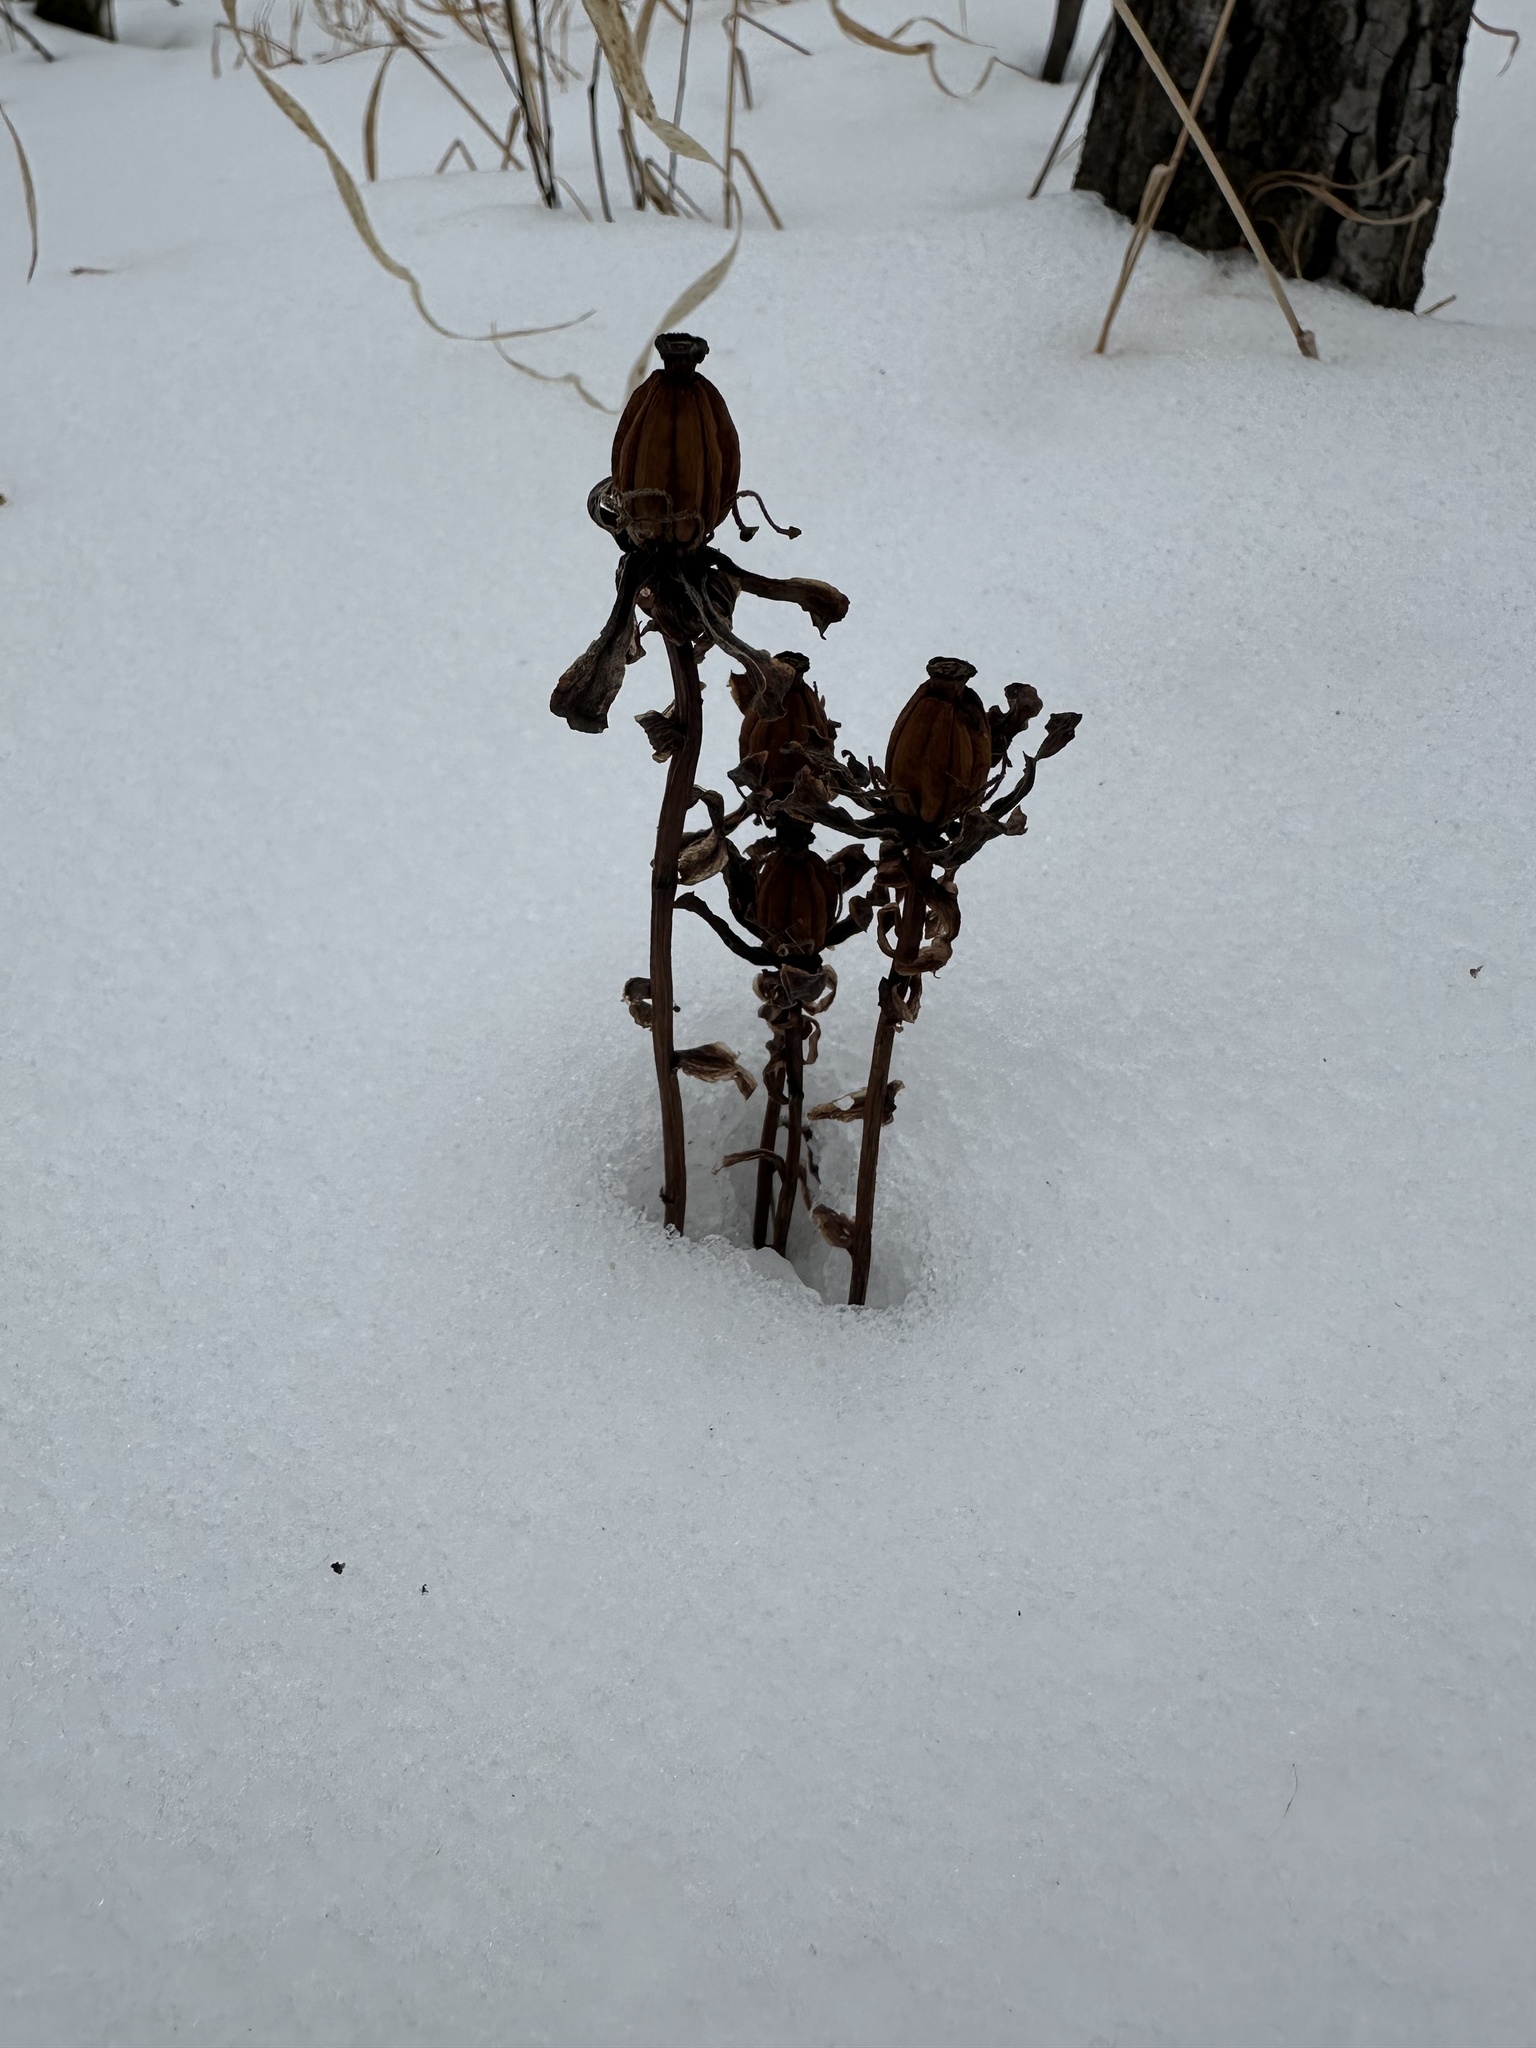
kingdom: Plantae
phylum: Tracheophyta
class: Magnoliopsida
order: Ericales
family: Ericaceae
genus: Monotropa
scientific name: Monotropa uniflora
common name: Convulsion root
